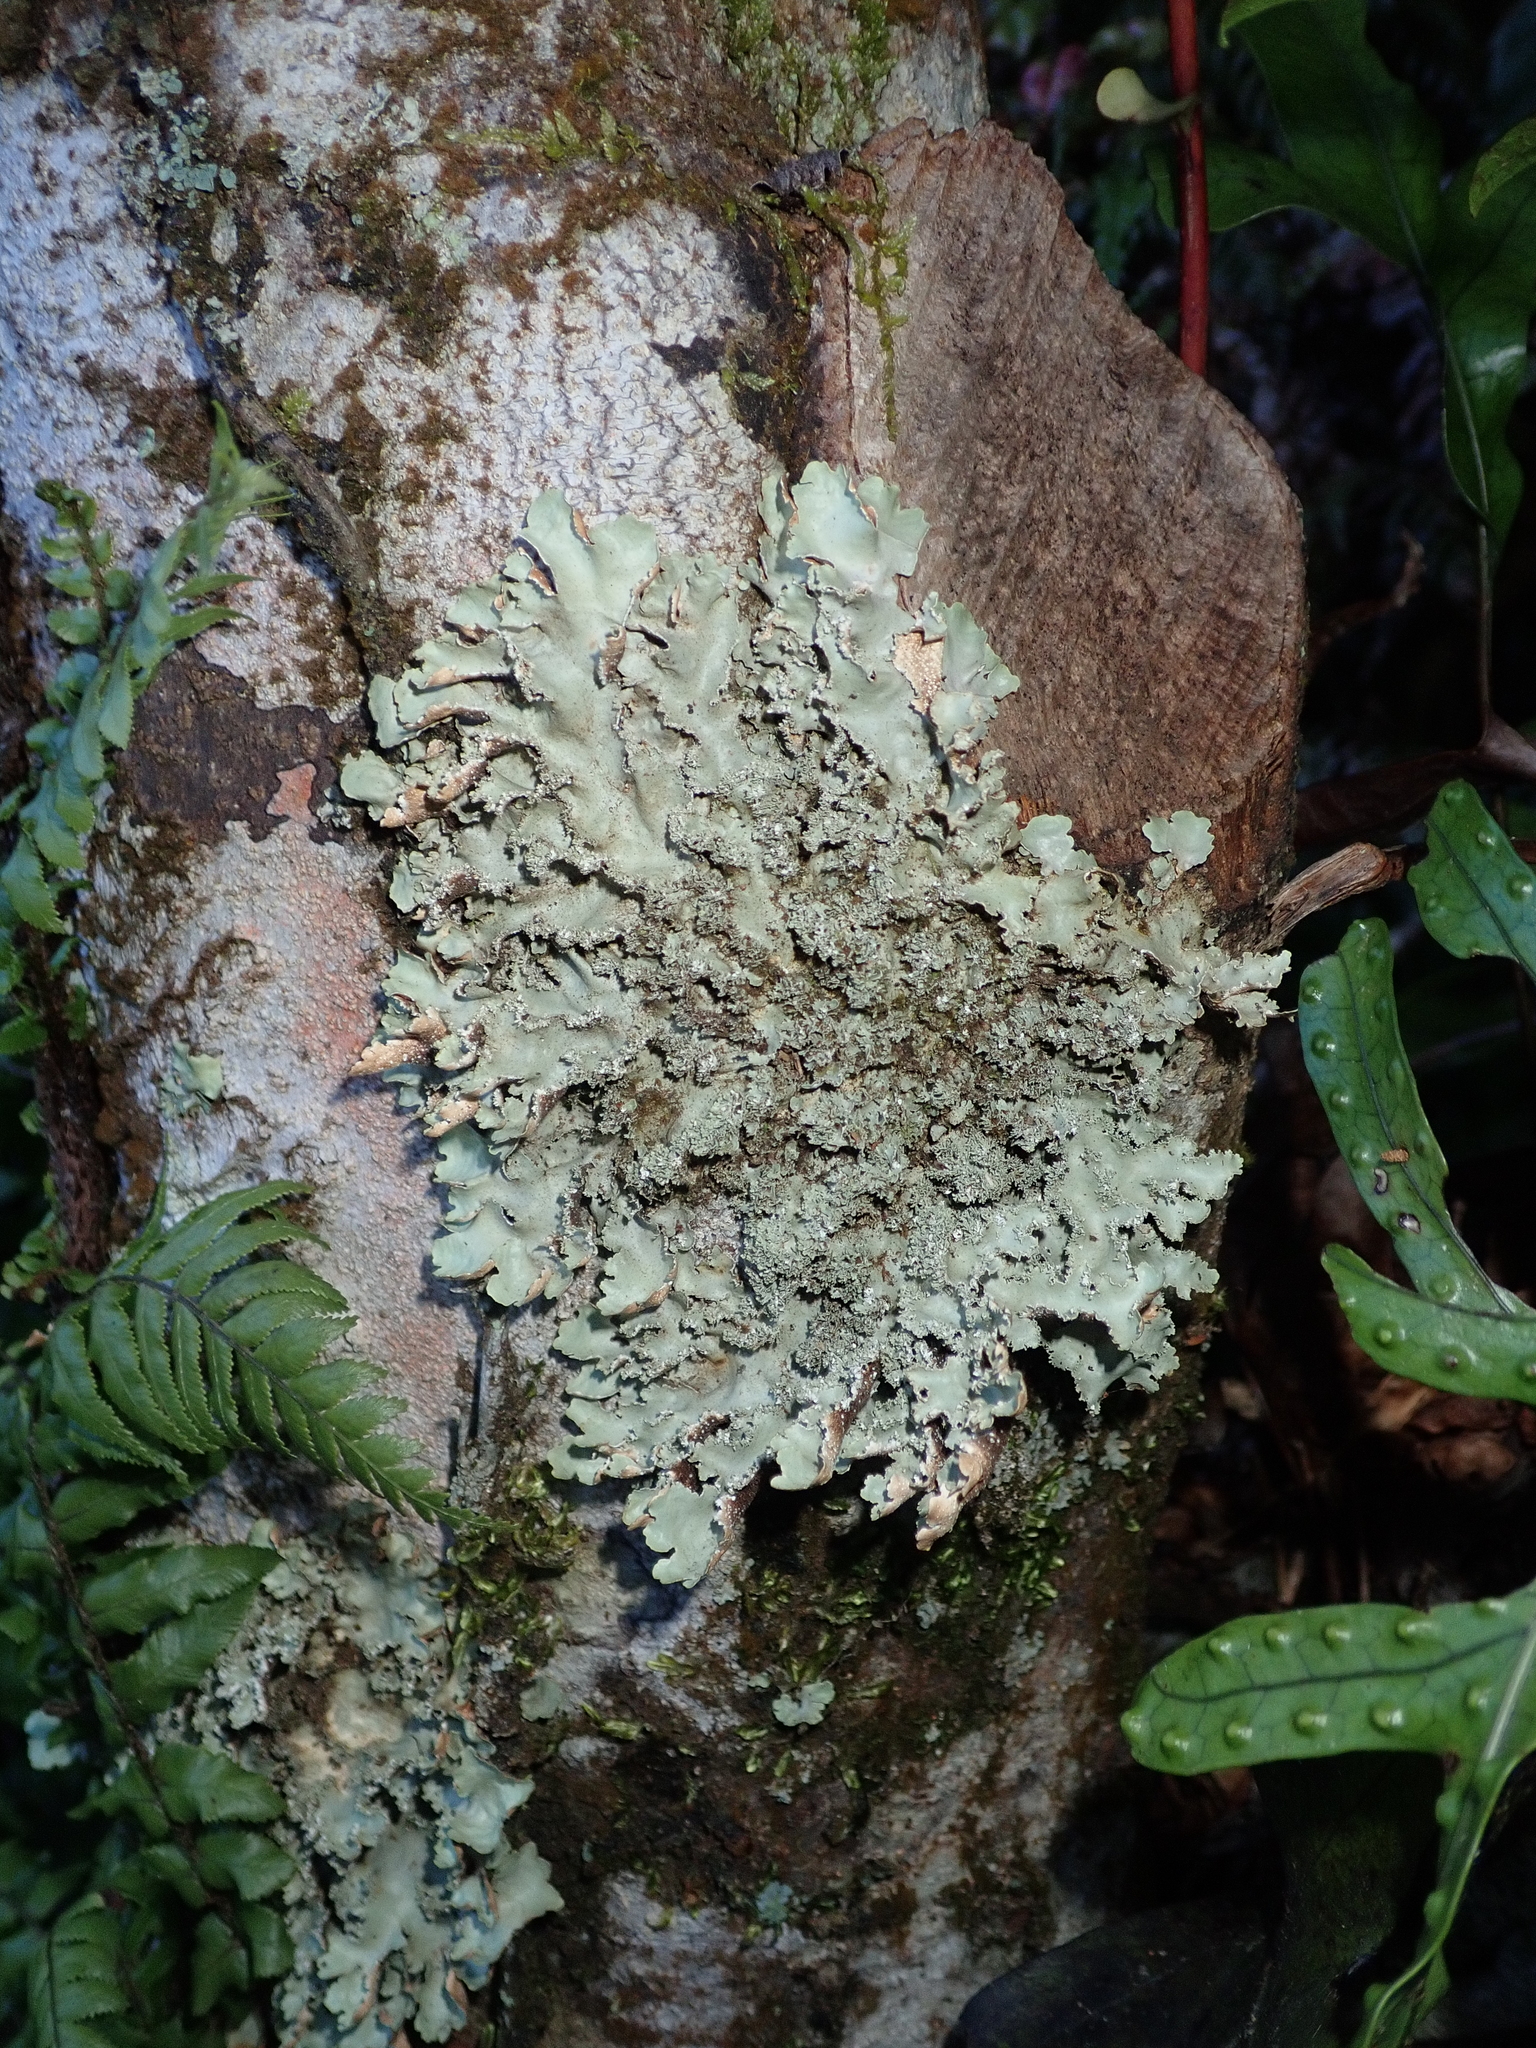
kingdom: Fungi
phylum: Ascomycota
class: Lecanoromycetes
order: Peltigerales
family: Lobariaceae
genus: Pseudocyphellaria
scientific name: Pseudocyphellaria glabra
